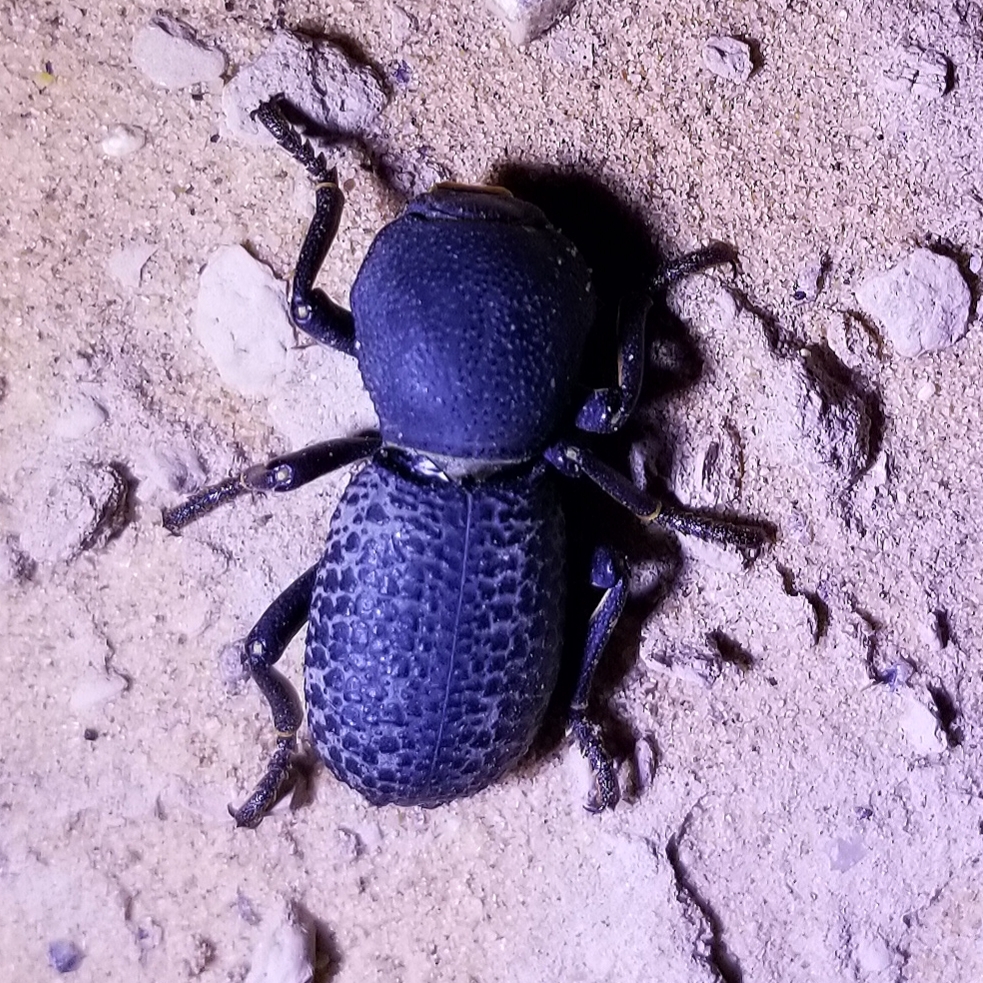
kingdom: Animalia
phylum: Arthropoda
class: Insecta
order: Coleoptera
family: Zopheridae
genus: Zopherus
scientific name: Zopherus tristis
